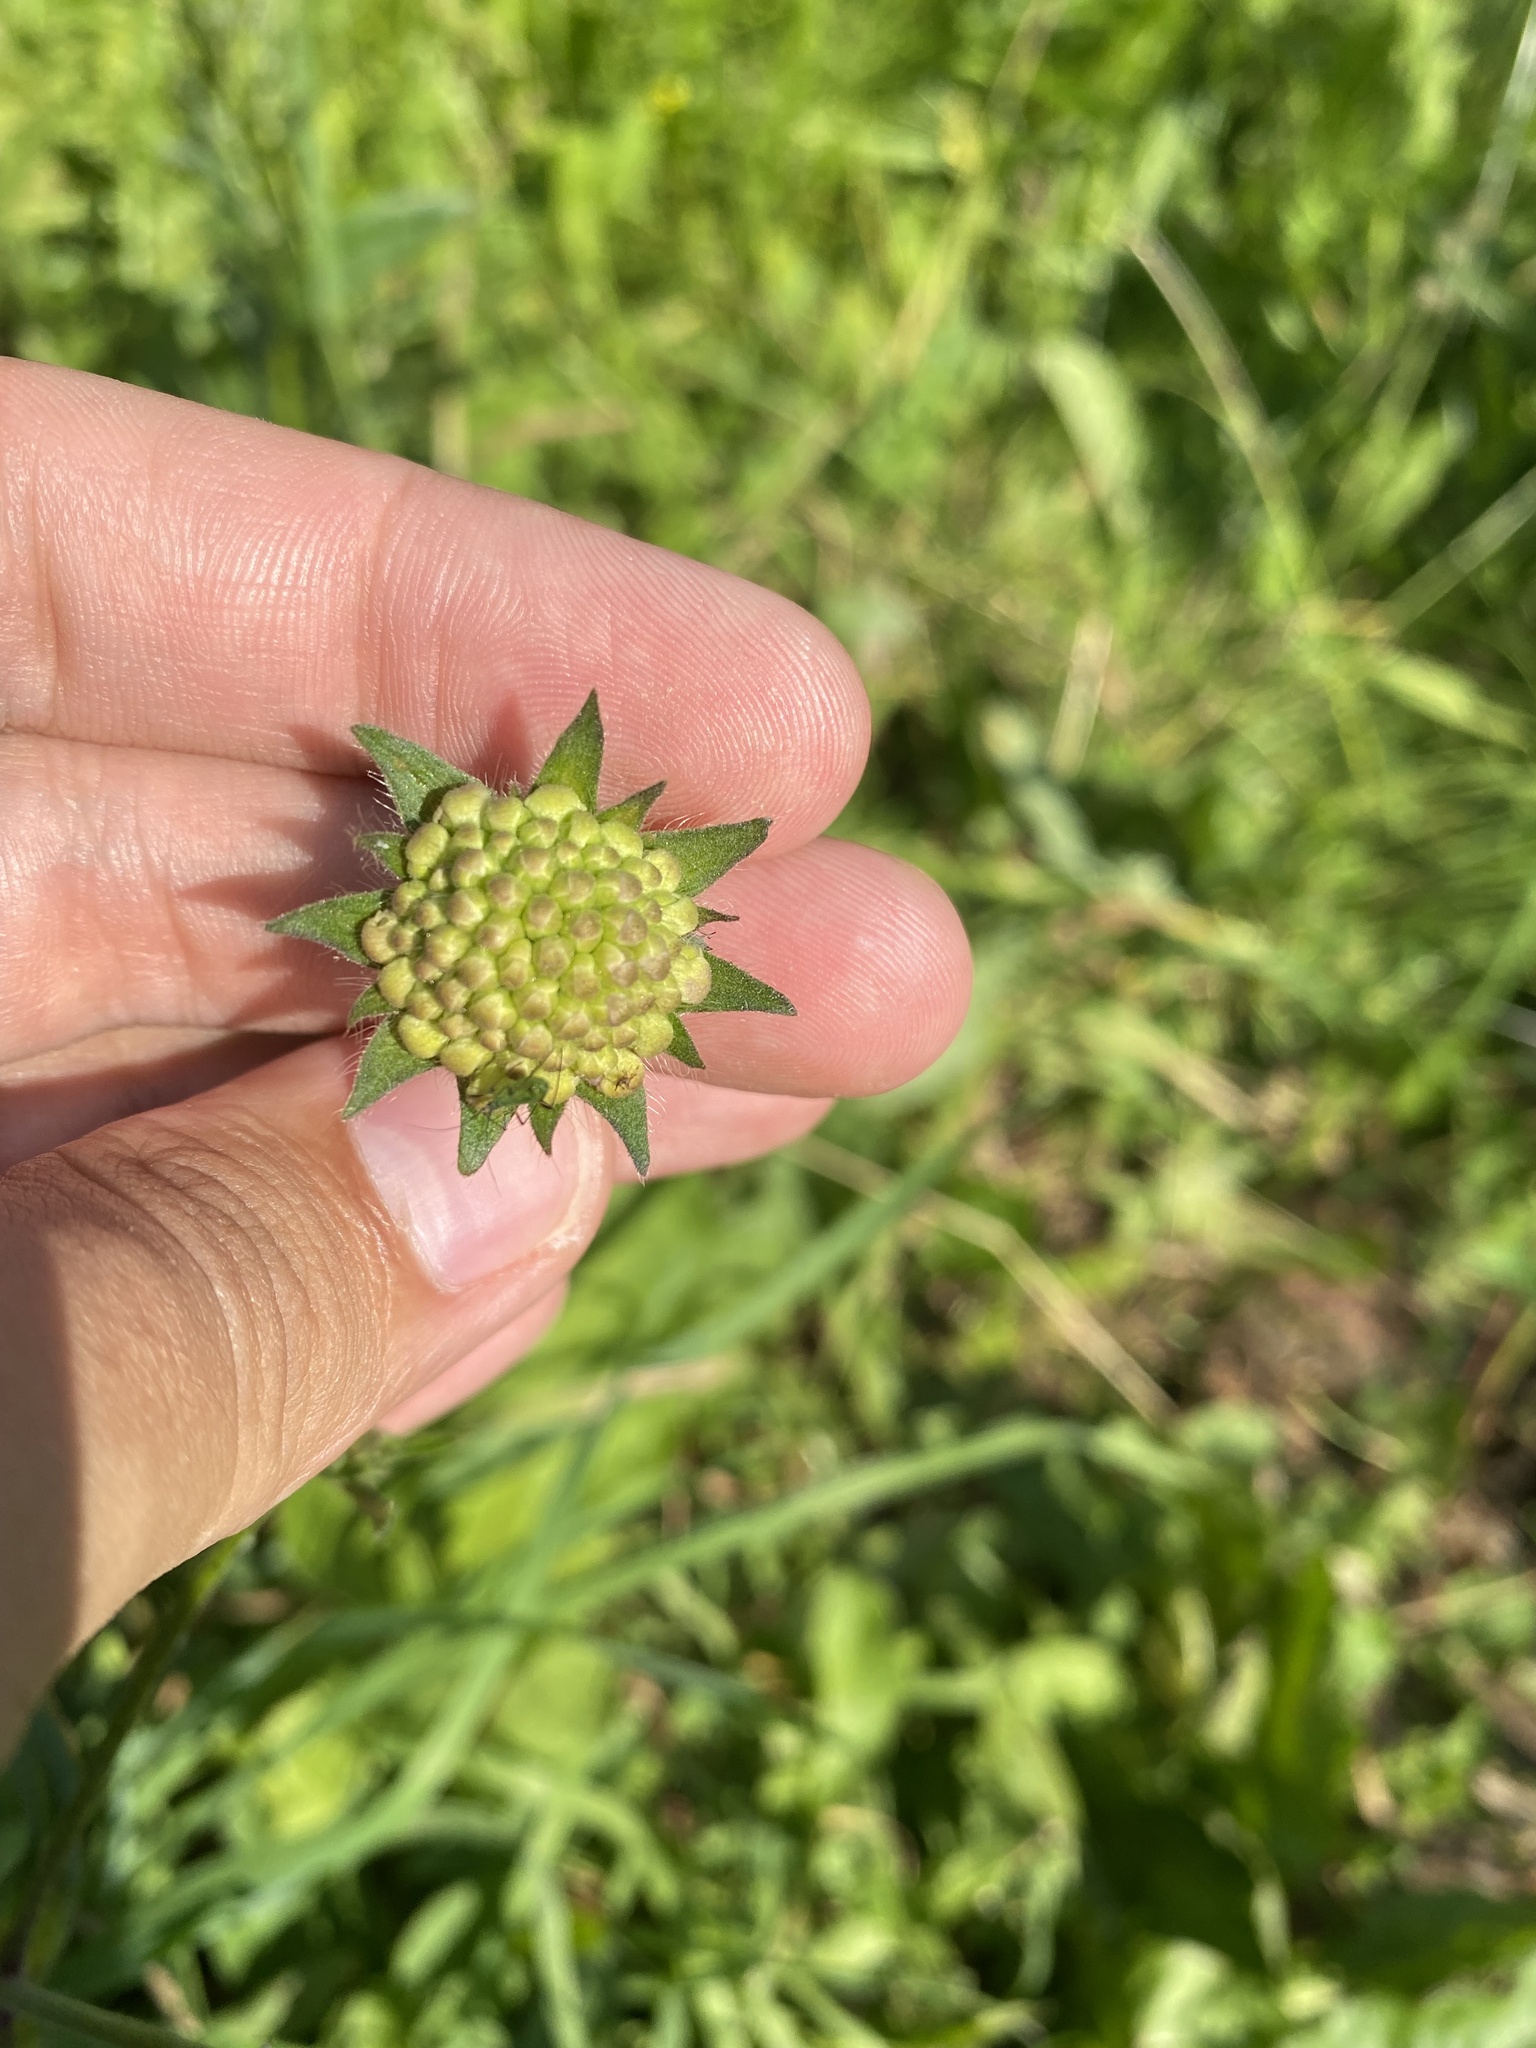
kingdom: Plantae
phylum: Tracheophyta
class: Magnoliopsida
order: Dipsacales
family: Caprifoliaceae
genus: Knautia
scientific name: Knautia arvensis
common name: Field scabiosa
